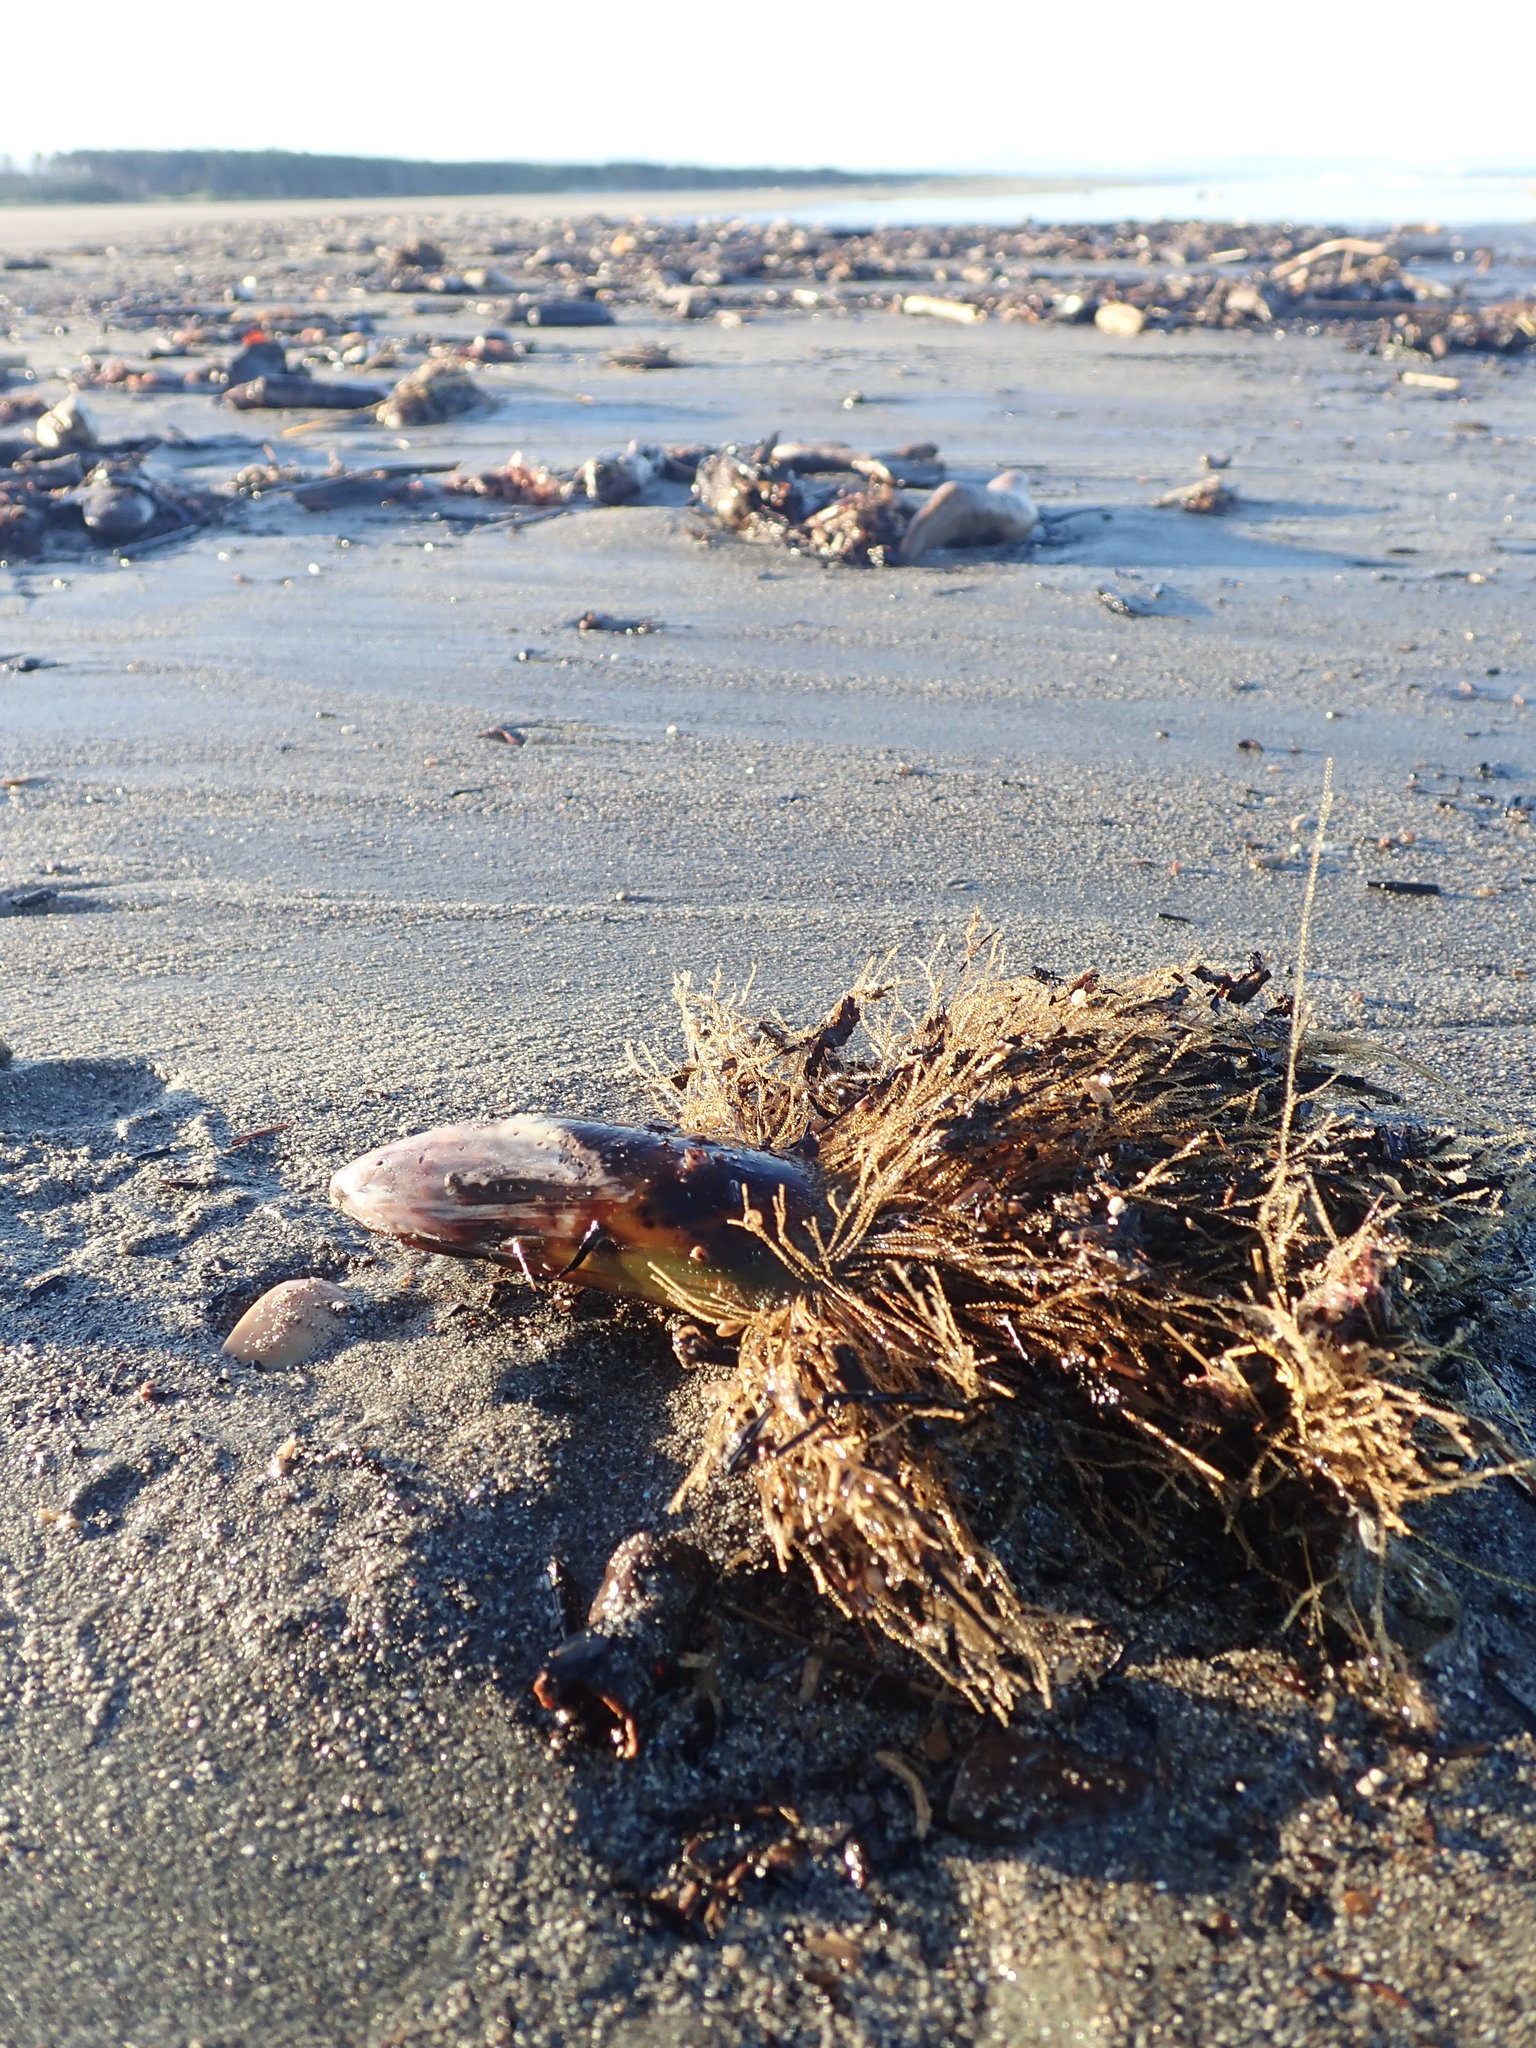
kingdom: Animalia
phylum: Cnidaria
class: Hydrozoa
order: Leptothecata
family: Sertulariidae
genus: Amphisbetia
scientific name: Amphisbetia bispinosa
